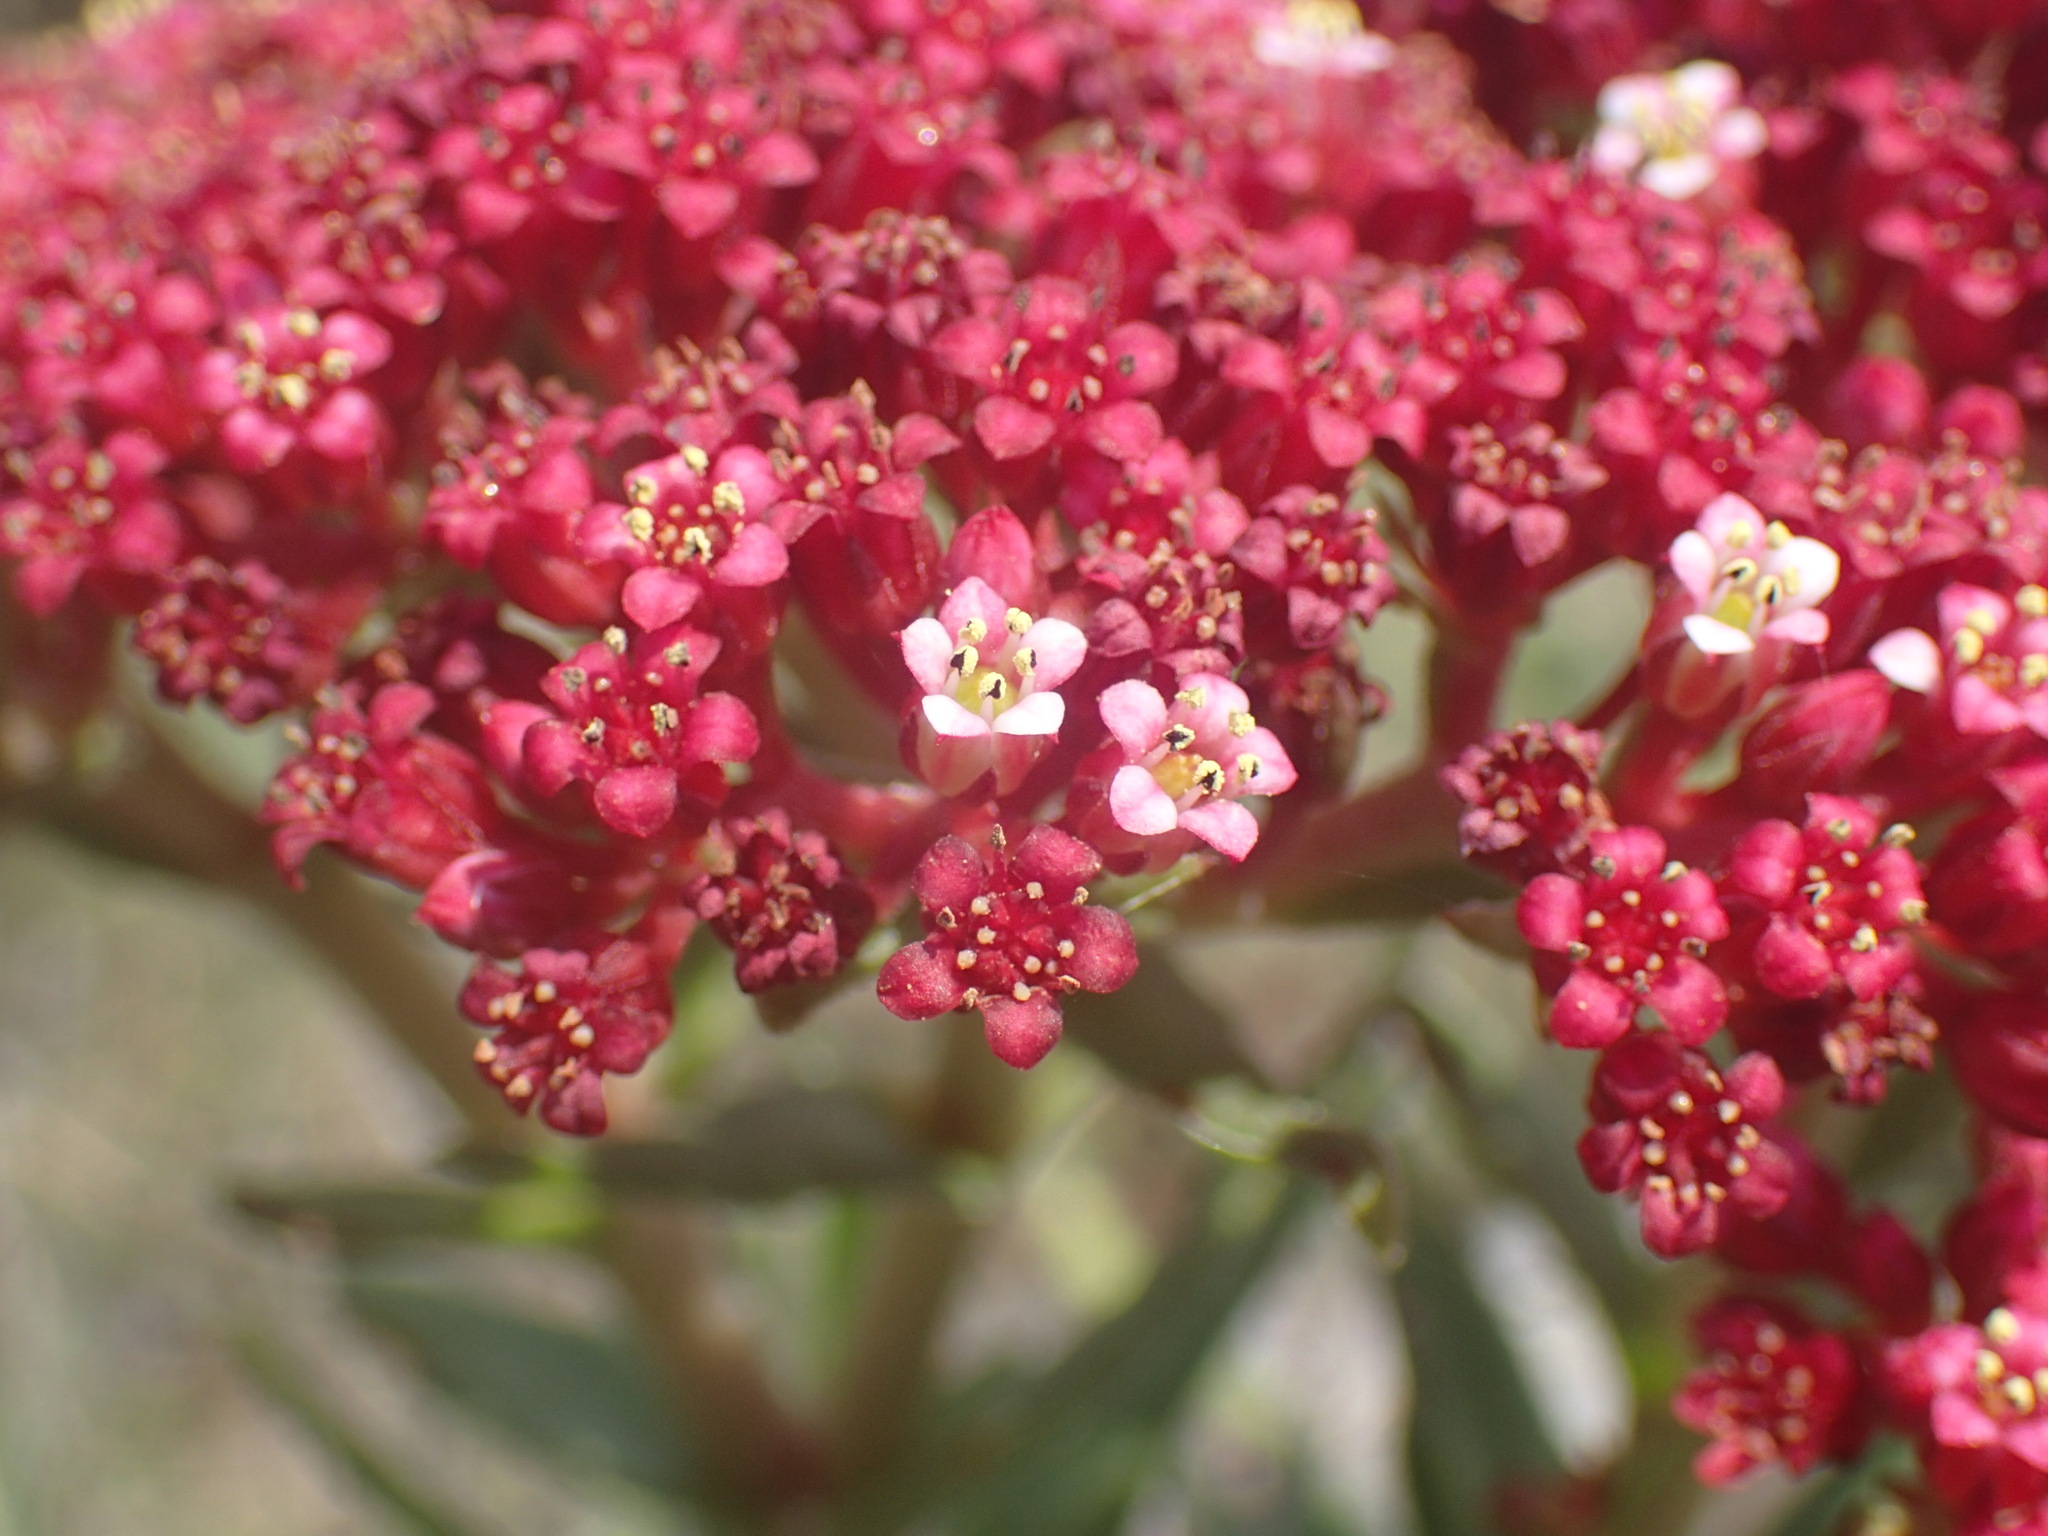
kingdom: Plantae
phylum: Tracheophyta
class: Magnoliopsida
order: Saxifragales
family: Crassulaceae
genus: Crassula
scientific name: Crassula alba
